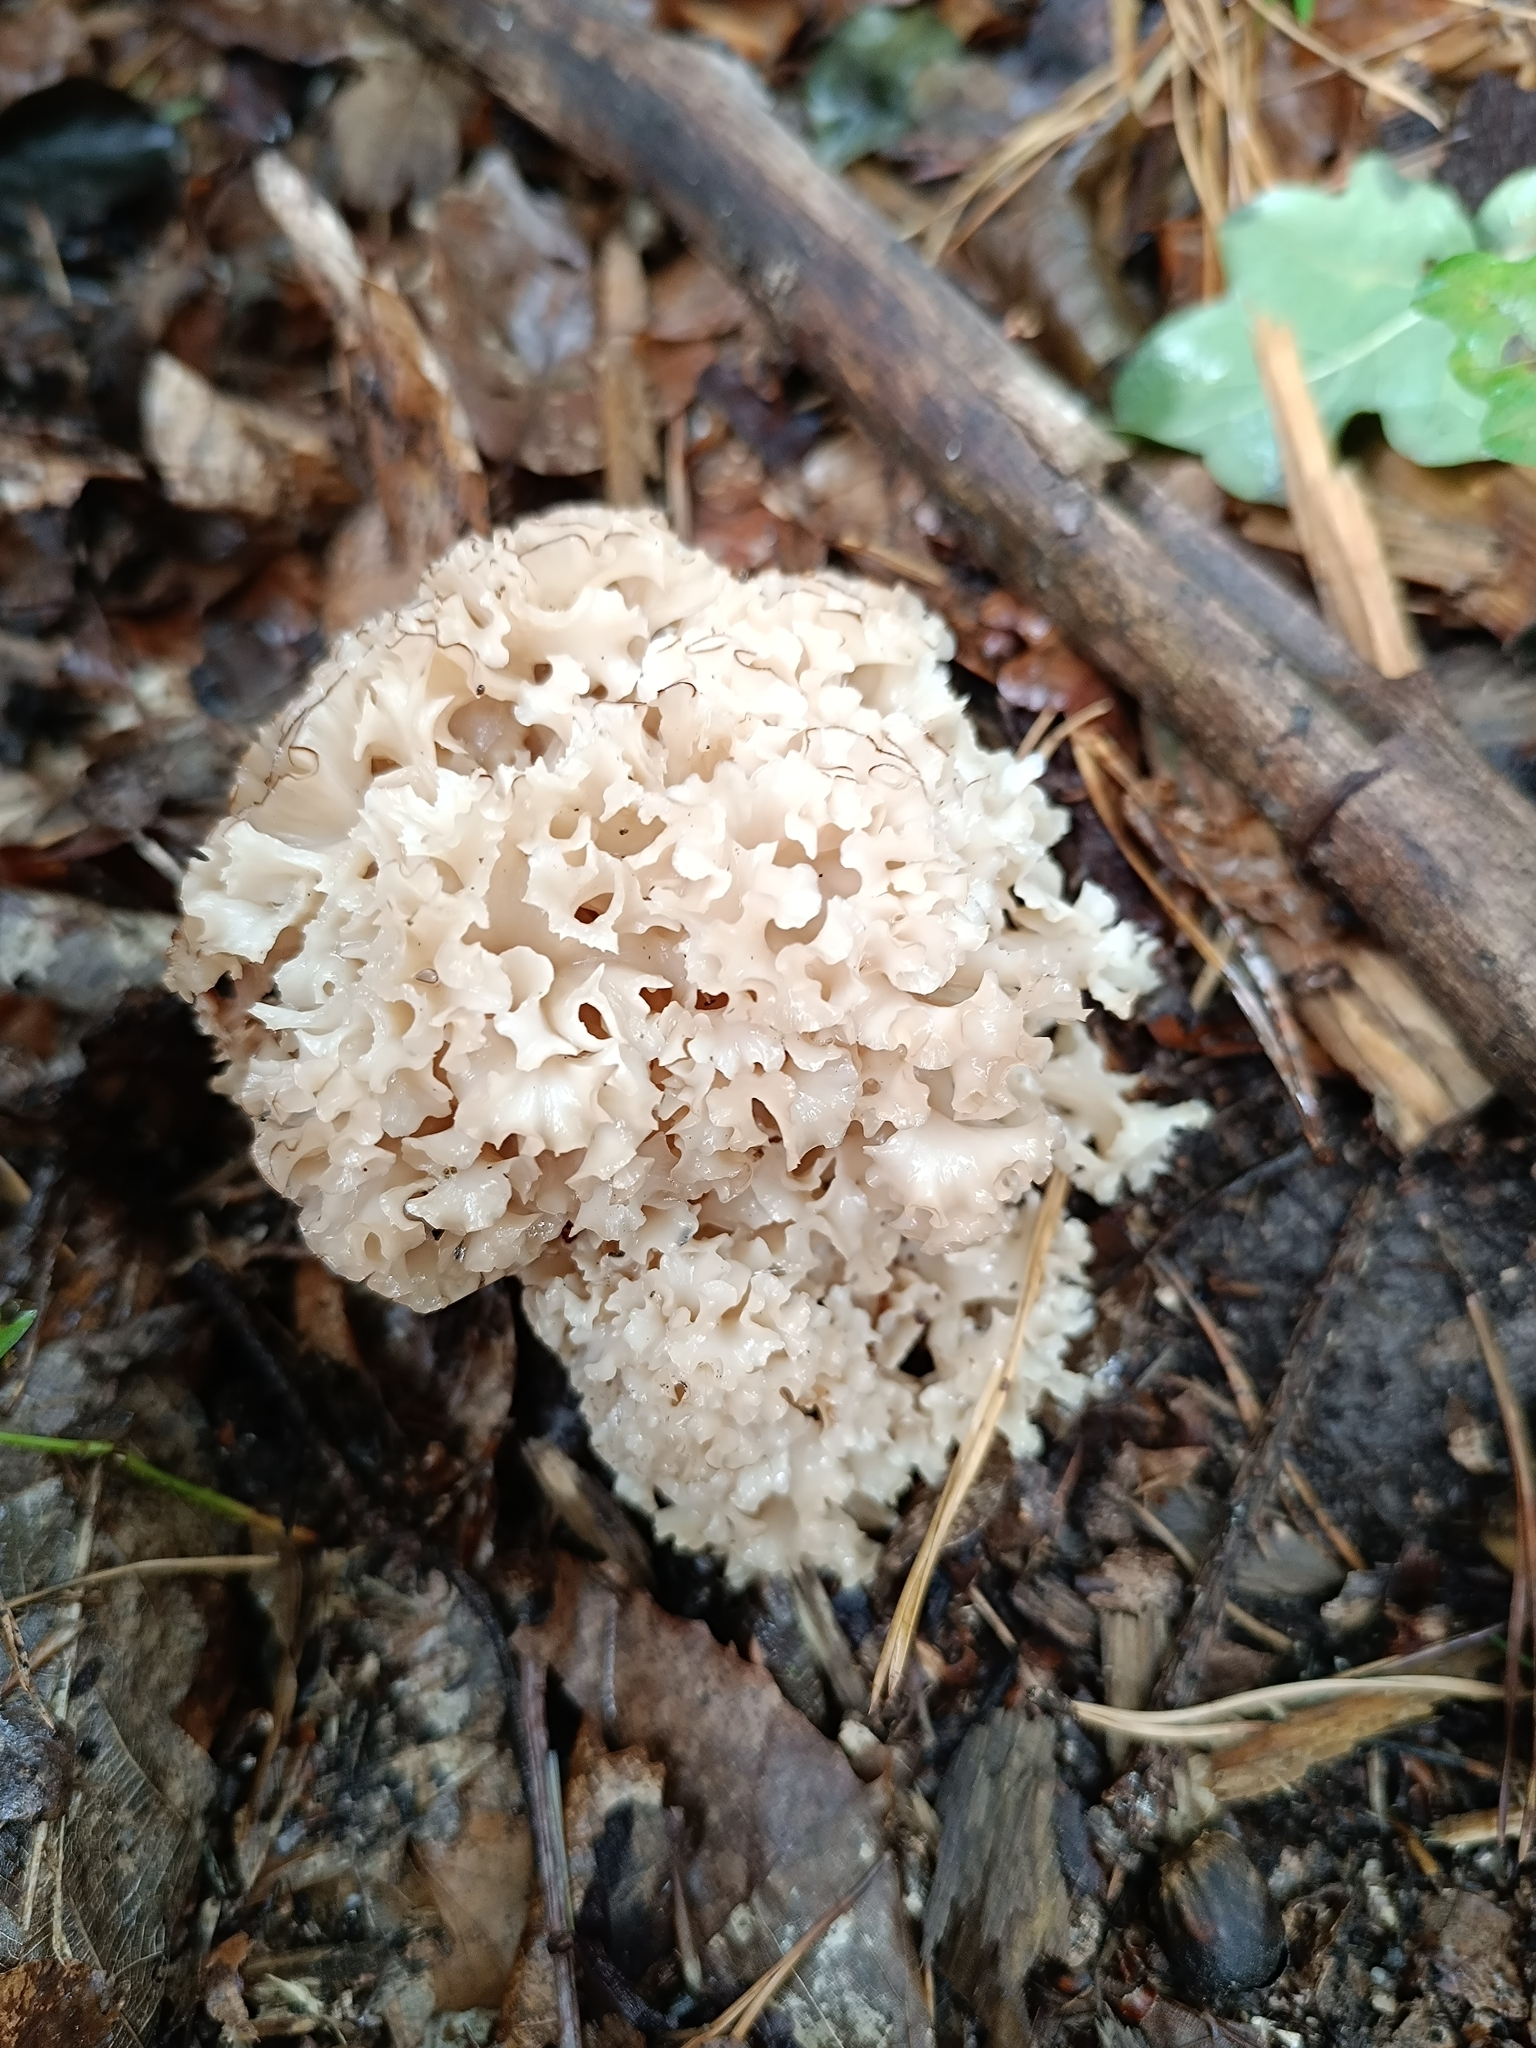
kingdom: Fungi
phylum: Basidiomycota
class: Agaricomycetes
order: Polyporales
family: Sparassidaceae
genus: Sparassis
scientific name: Sparassis crispa
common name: Brain fungus
